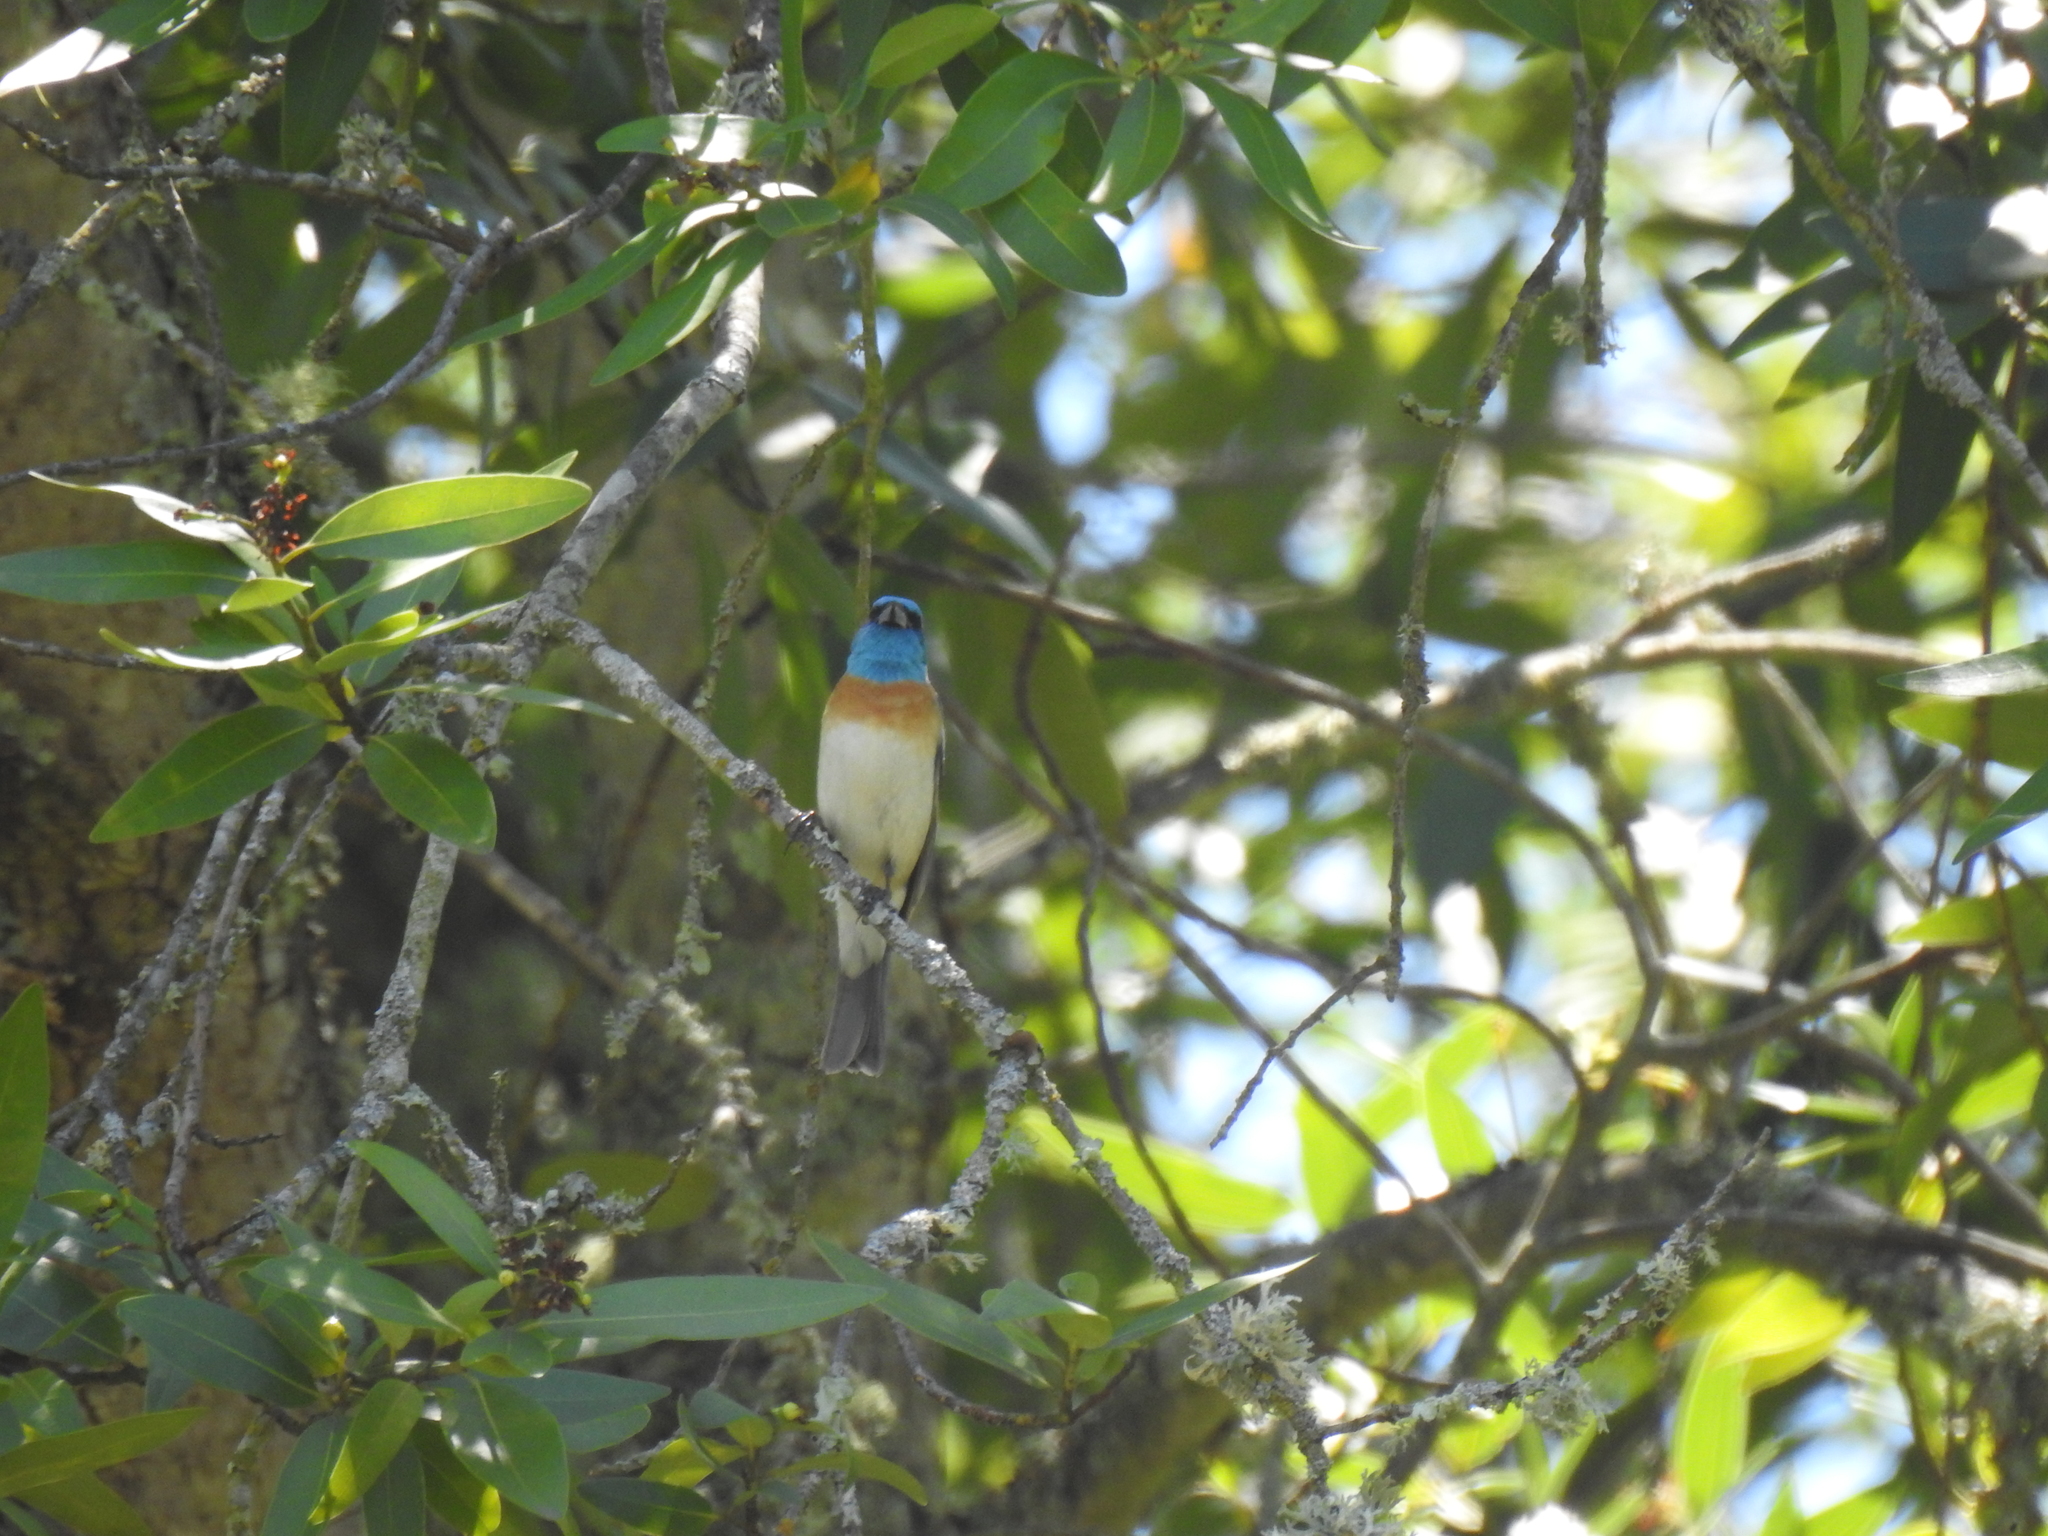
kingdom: Animalia
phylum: Chordata
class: Aves
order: Passeriformes
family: Cardinalidae
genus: Passerina
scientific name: Passerina amoena
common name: Lazuli bunting
